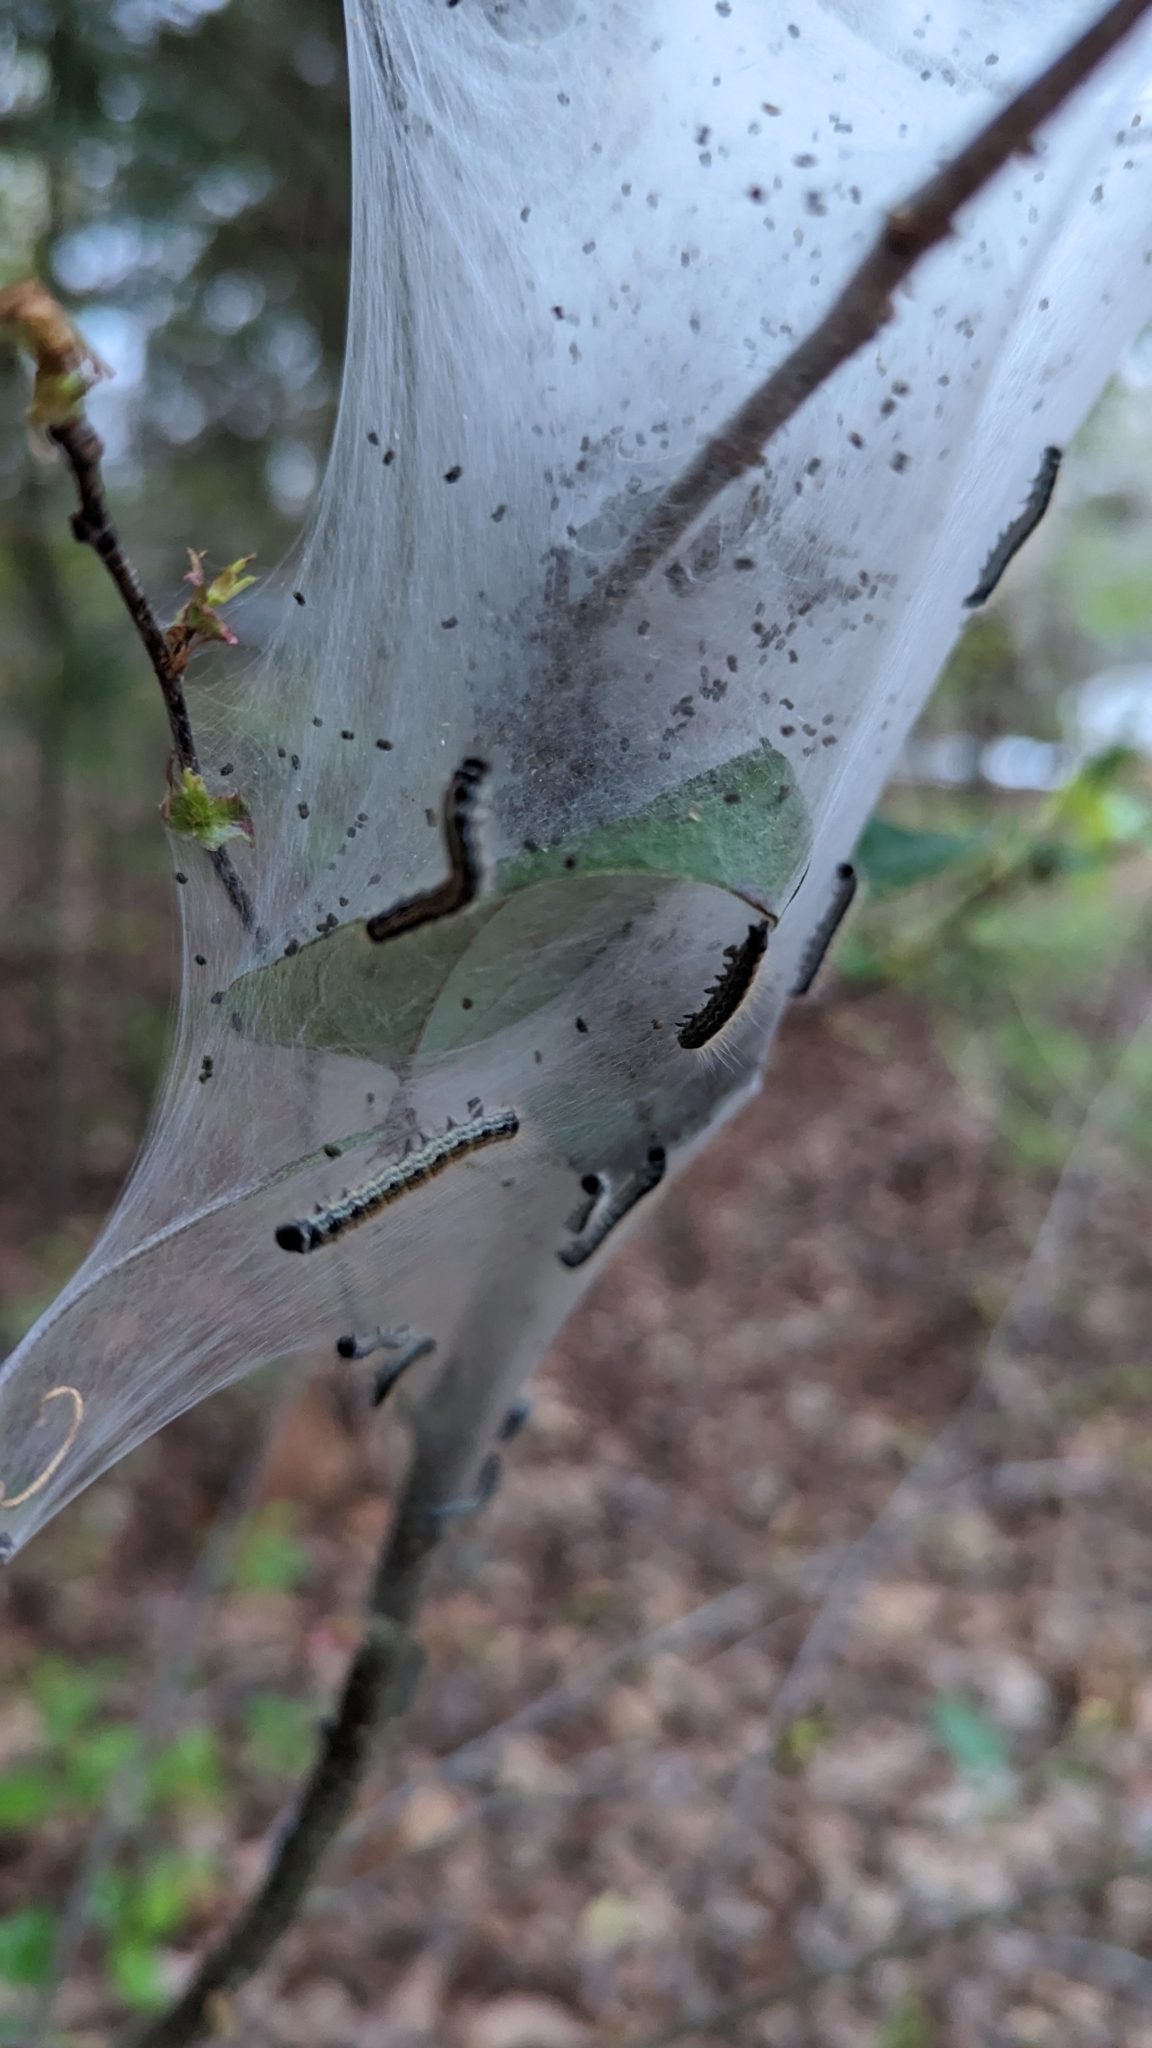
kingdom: Animalia
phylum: Arthropoda
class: Insecta
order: Lepidoptera
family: Lasiocampidae
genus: Malacosoma
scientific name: Malacosoma americana
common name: Eastern tent caterpillar moth
